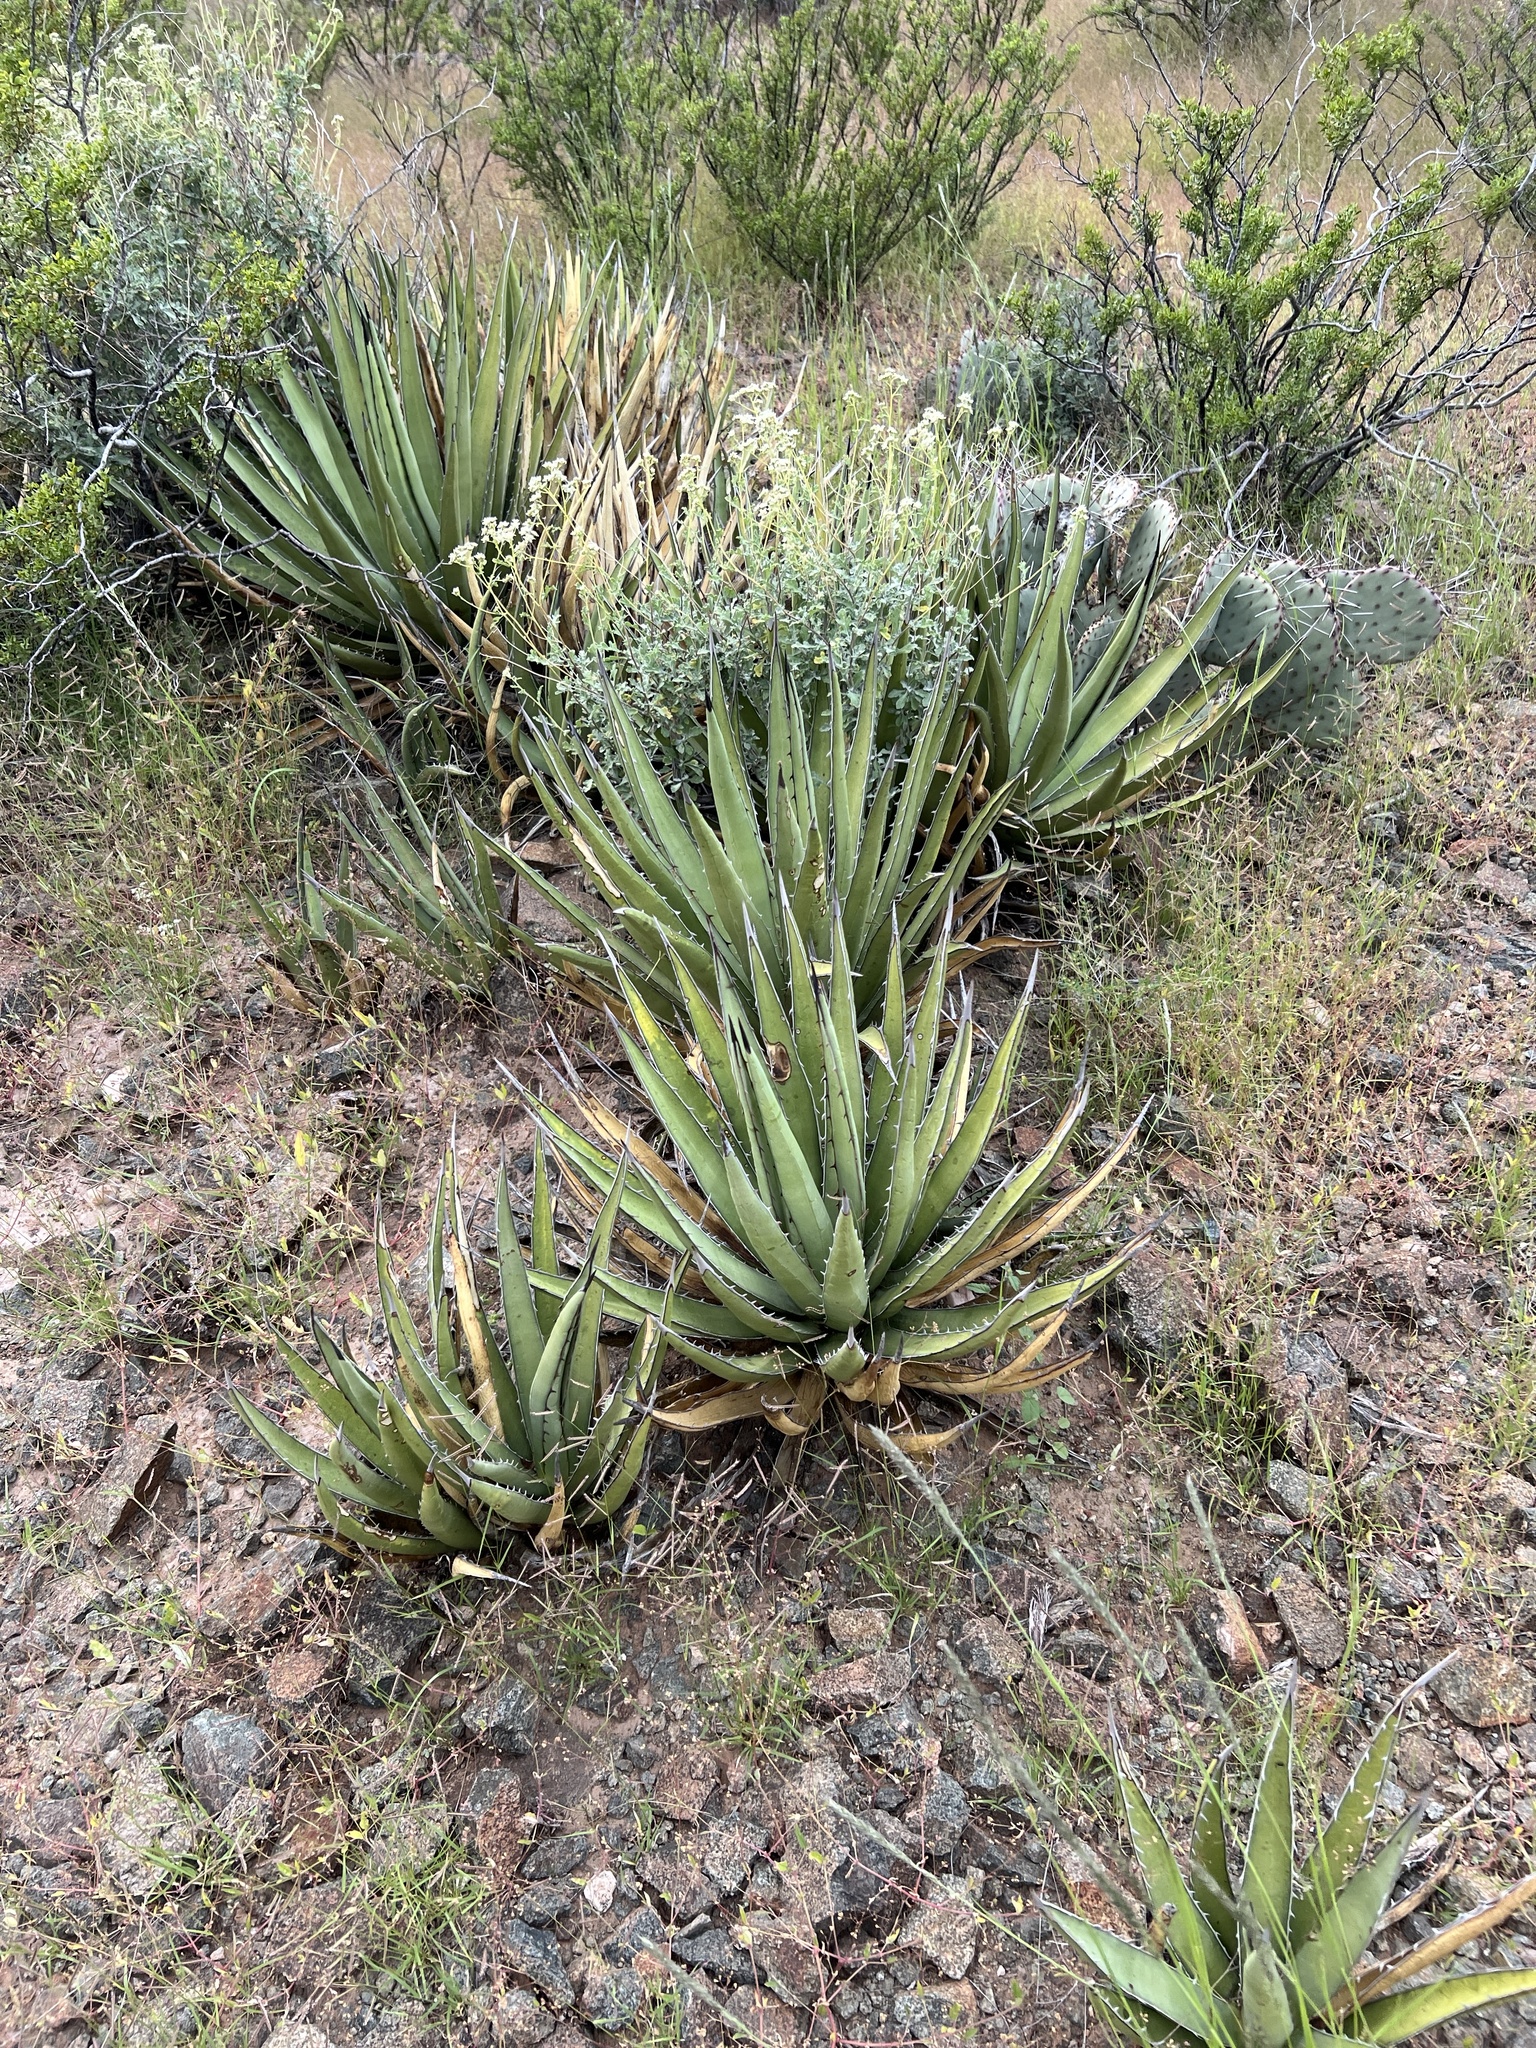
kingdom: Plantae
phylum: Tracheophyta
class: Liliopsida
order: Asparagales
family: Asparagaceae
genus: Agave
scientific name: Agave lechuguilla
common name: Lecheguilla agave
